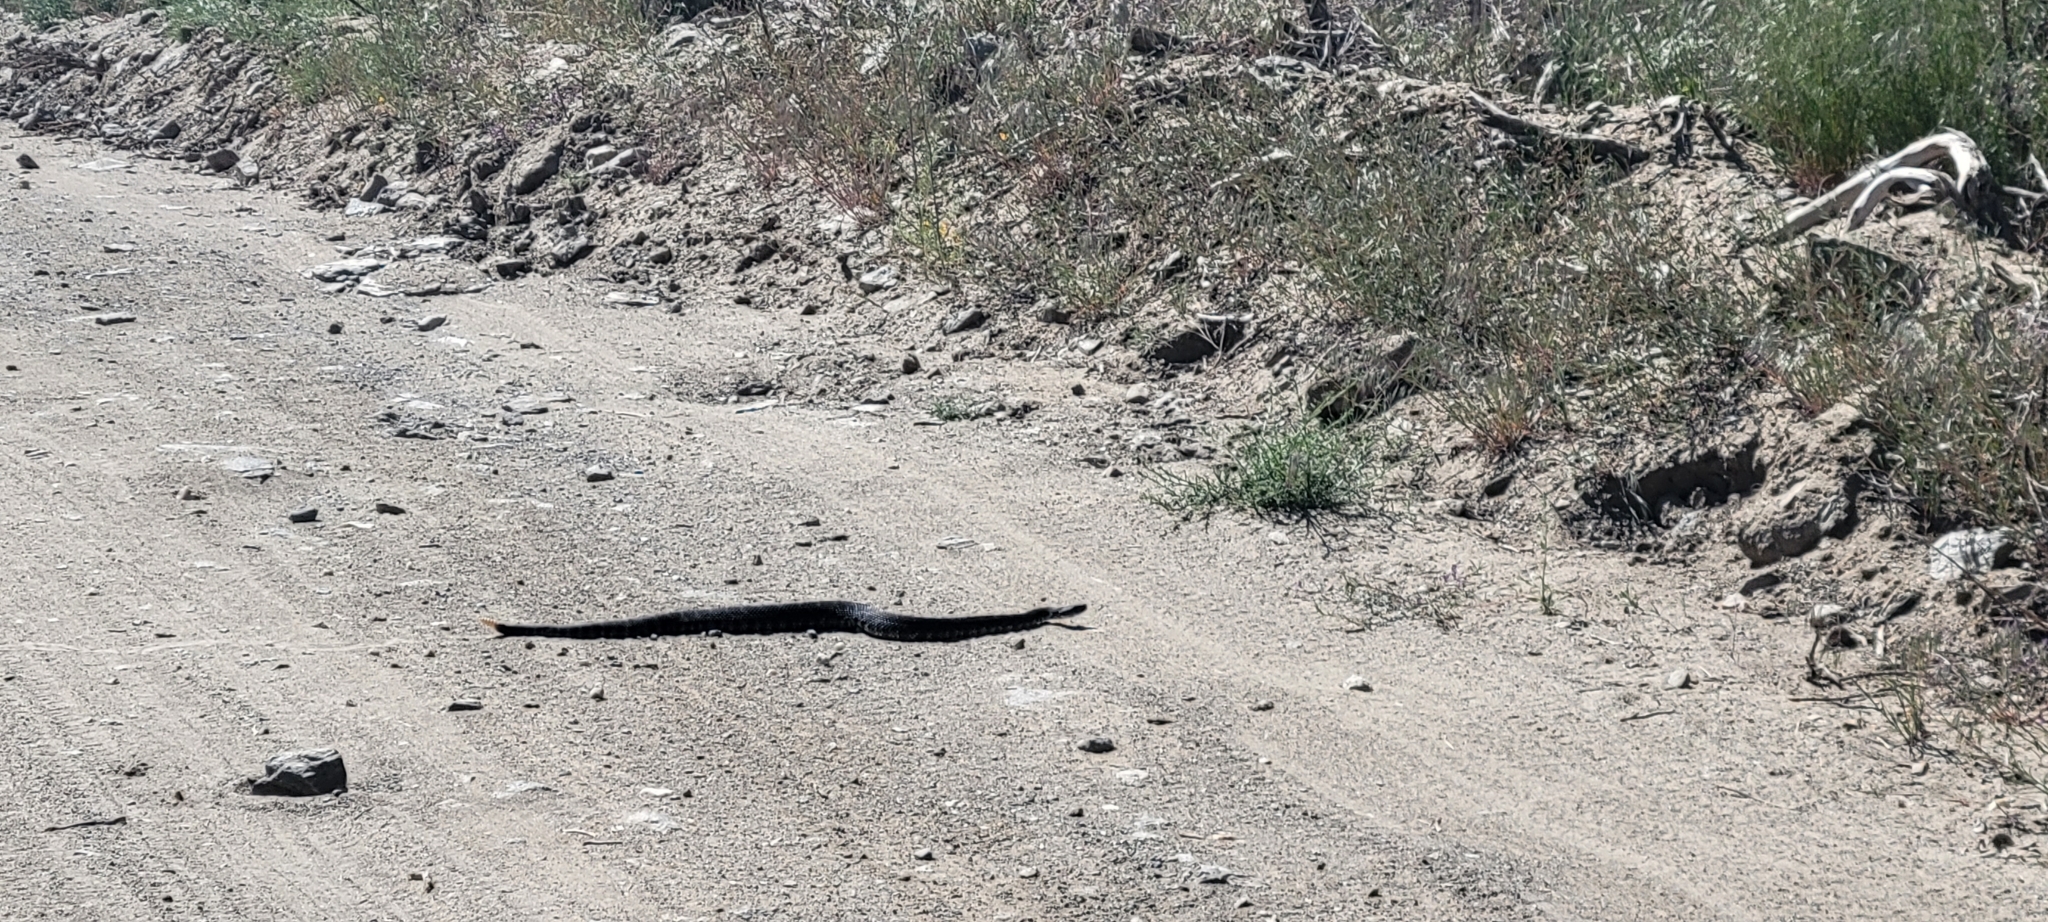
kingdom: Animalia
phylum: Chordata
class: Squamata
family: Viperidae
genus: Crotalus
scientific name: Crotalus oreganus
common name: Abyssus
